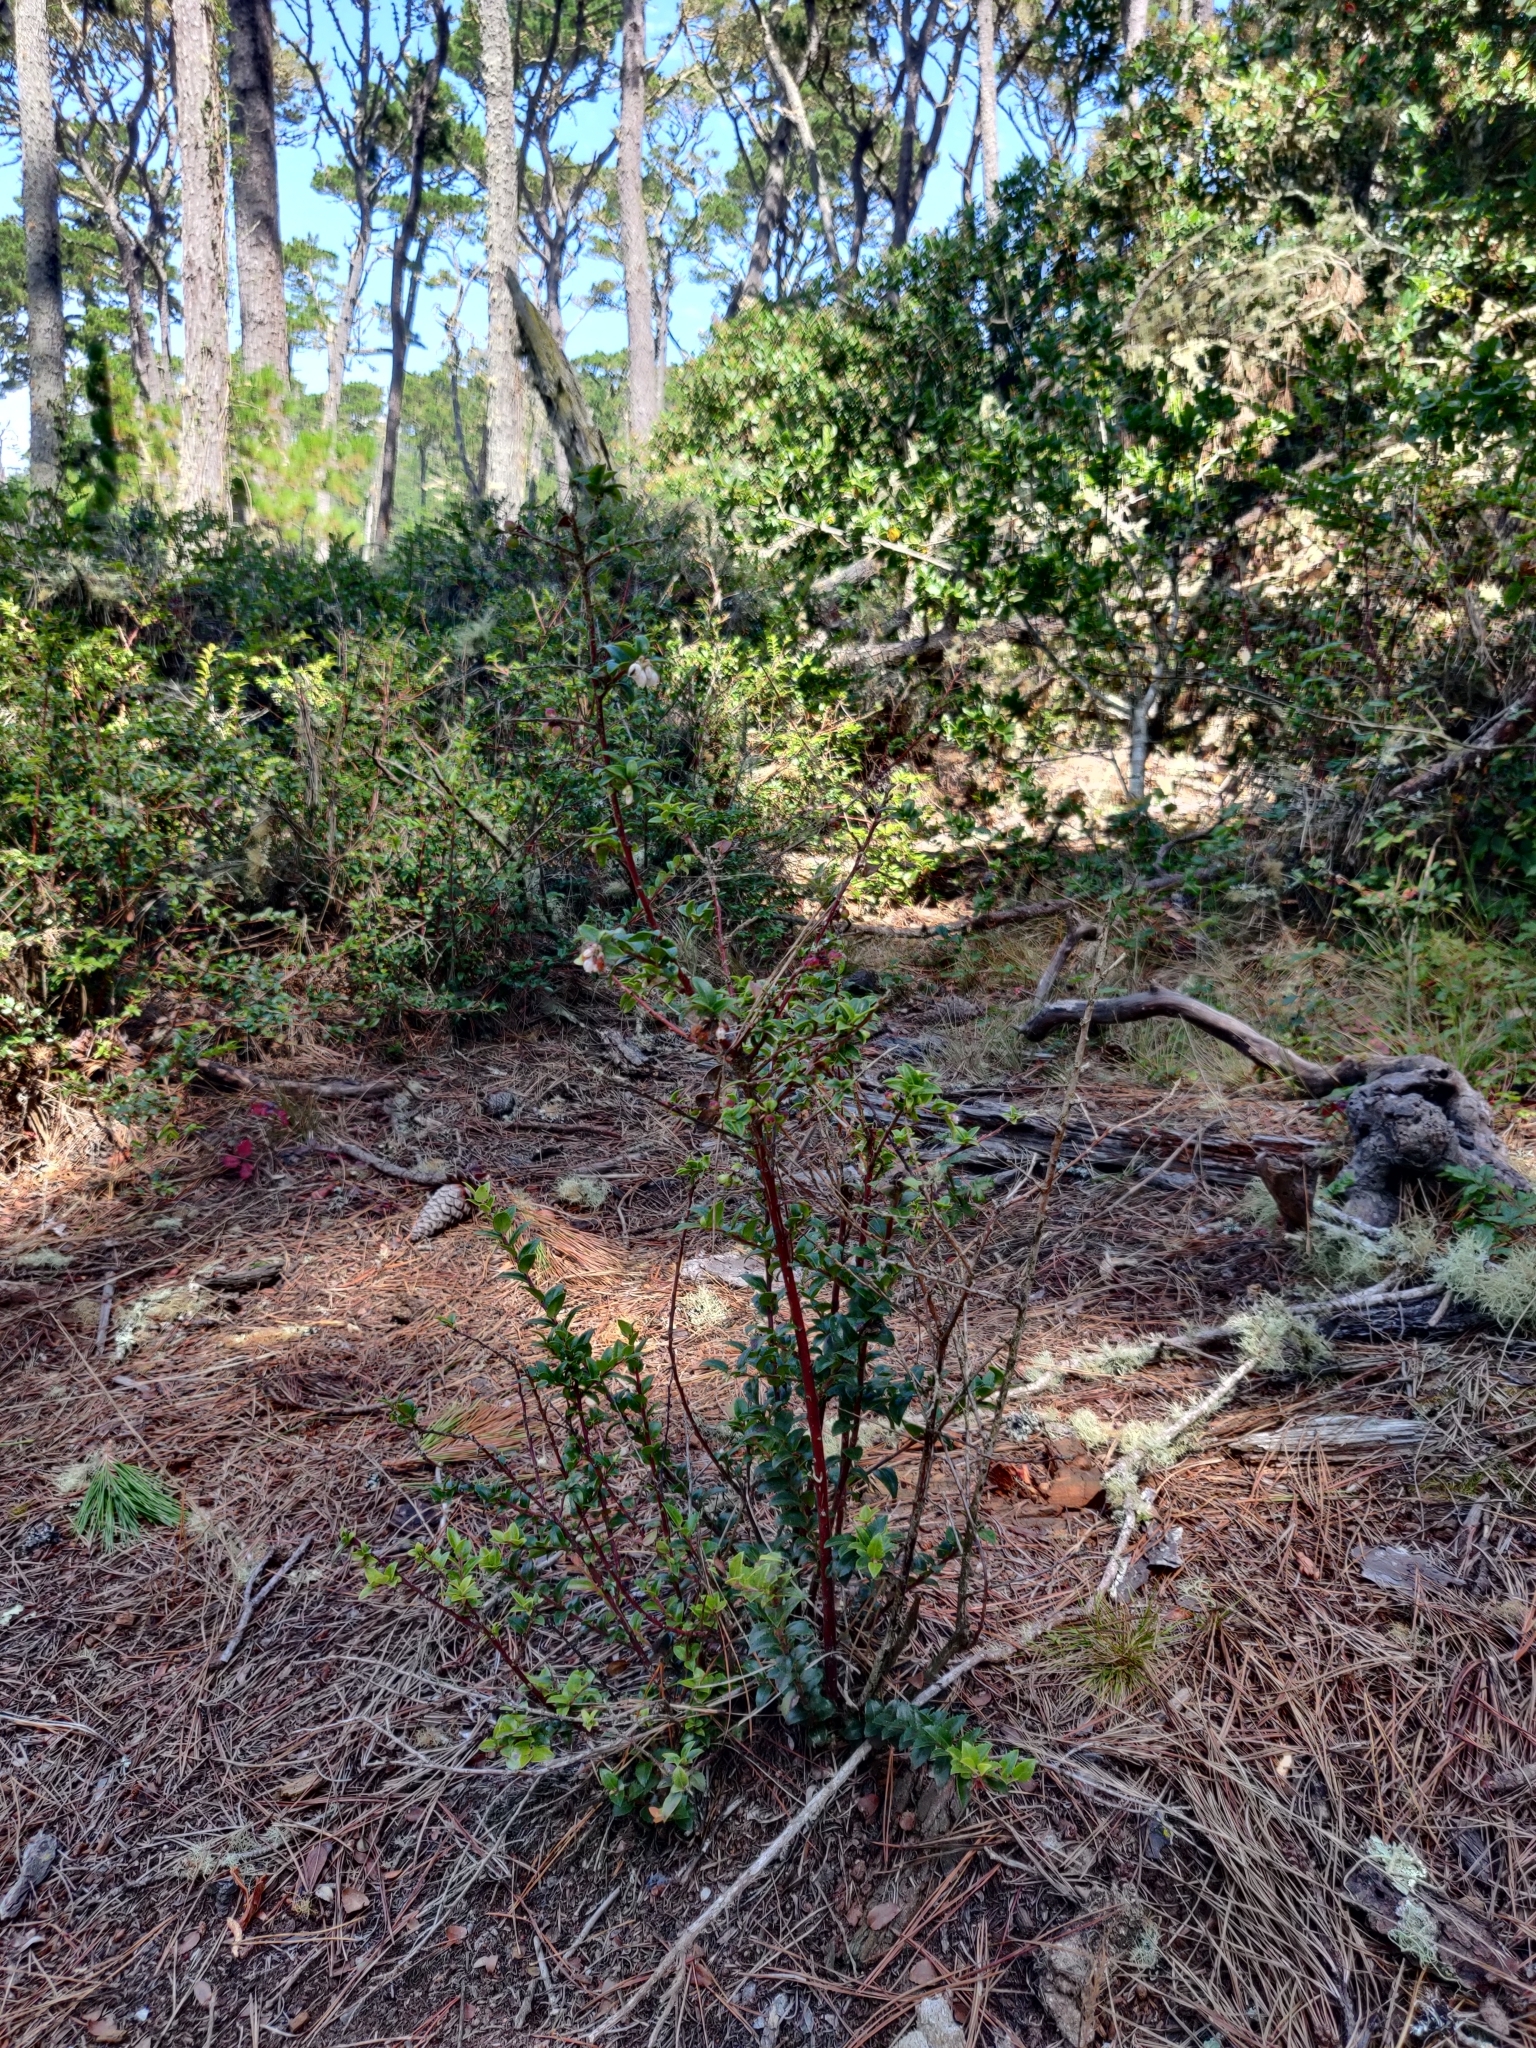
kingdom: Plantae
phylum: Tracheophyta
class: Magnoliopsida
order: Ericales
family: Ericaceae
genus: Vaccinium
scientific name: Vaccinium ovatum
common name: California-huckleberry
